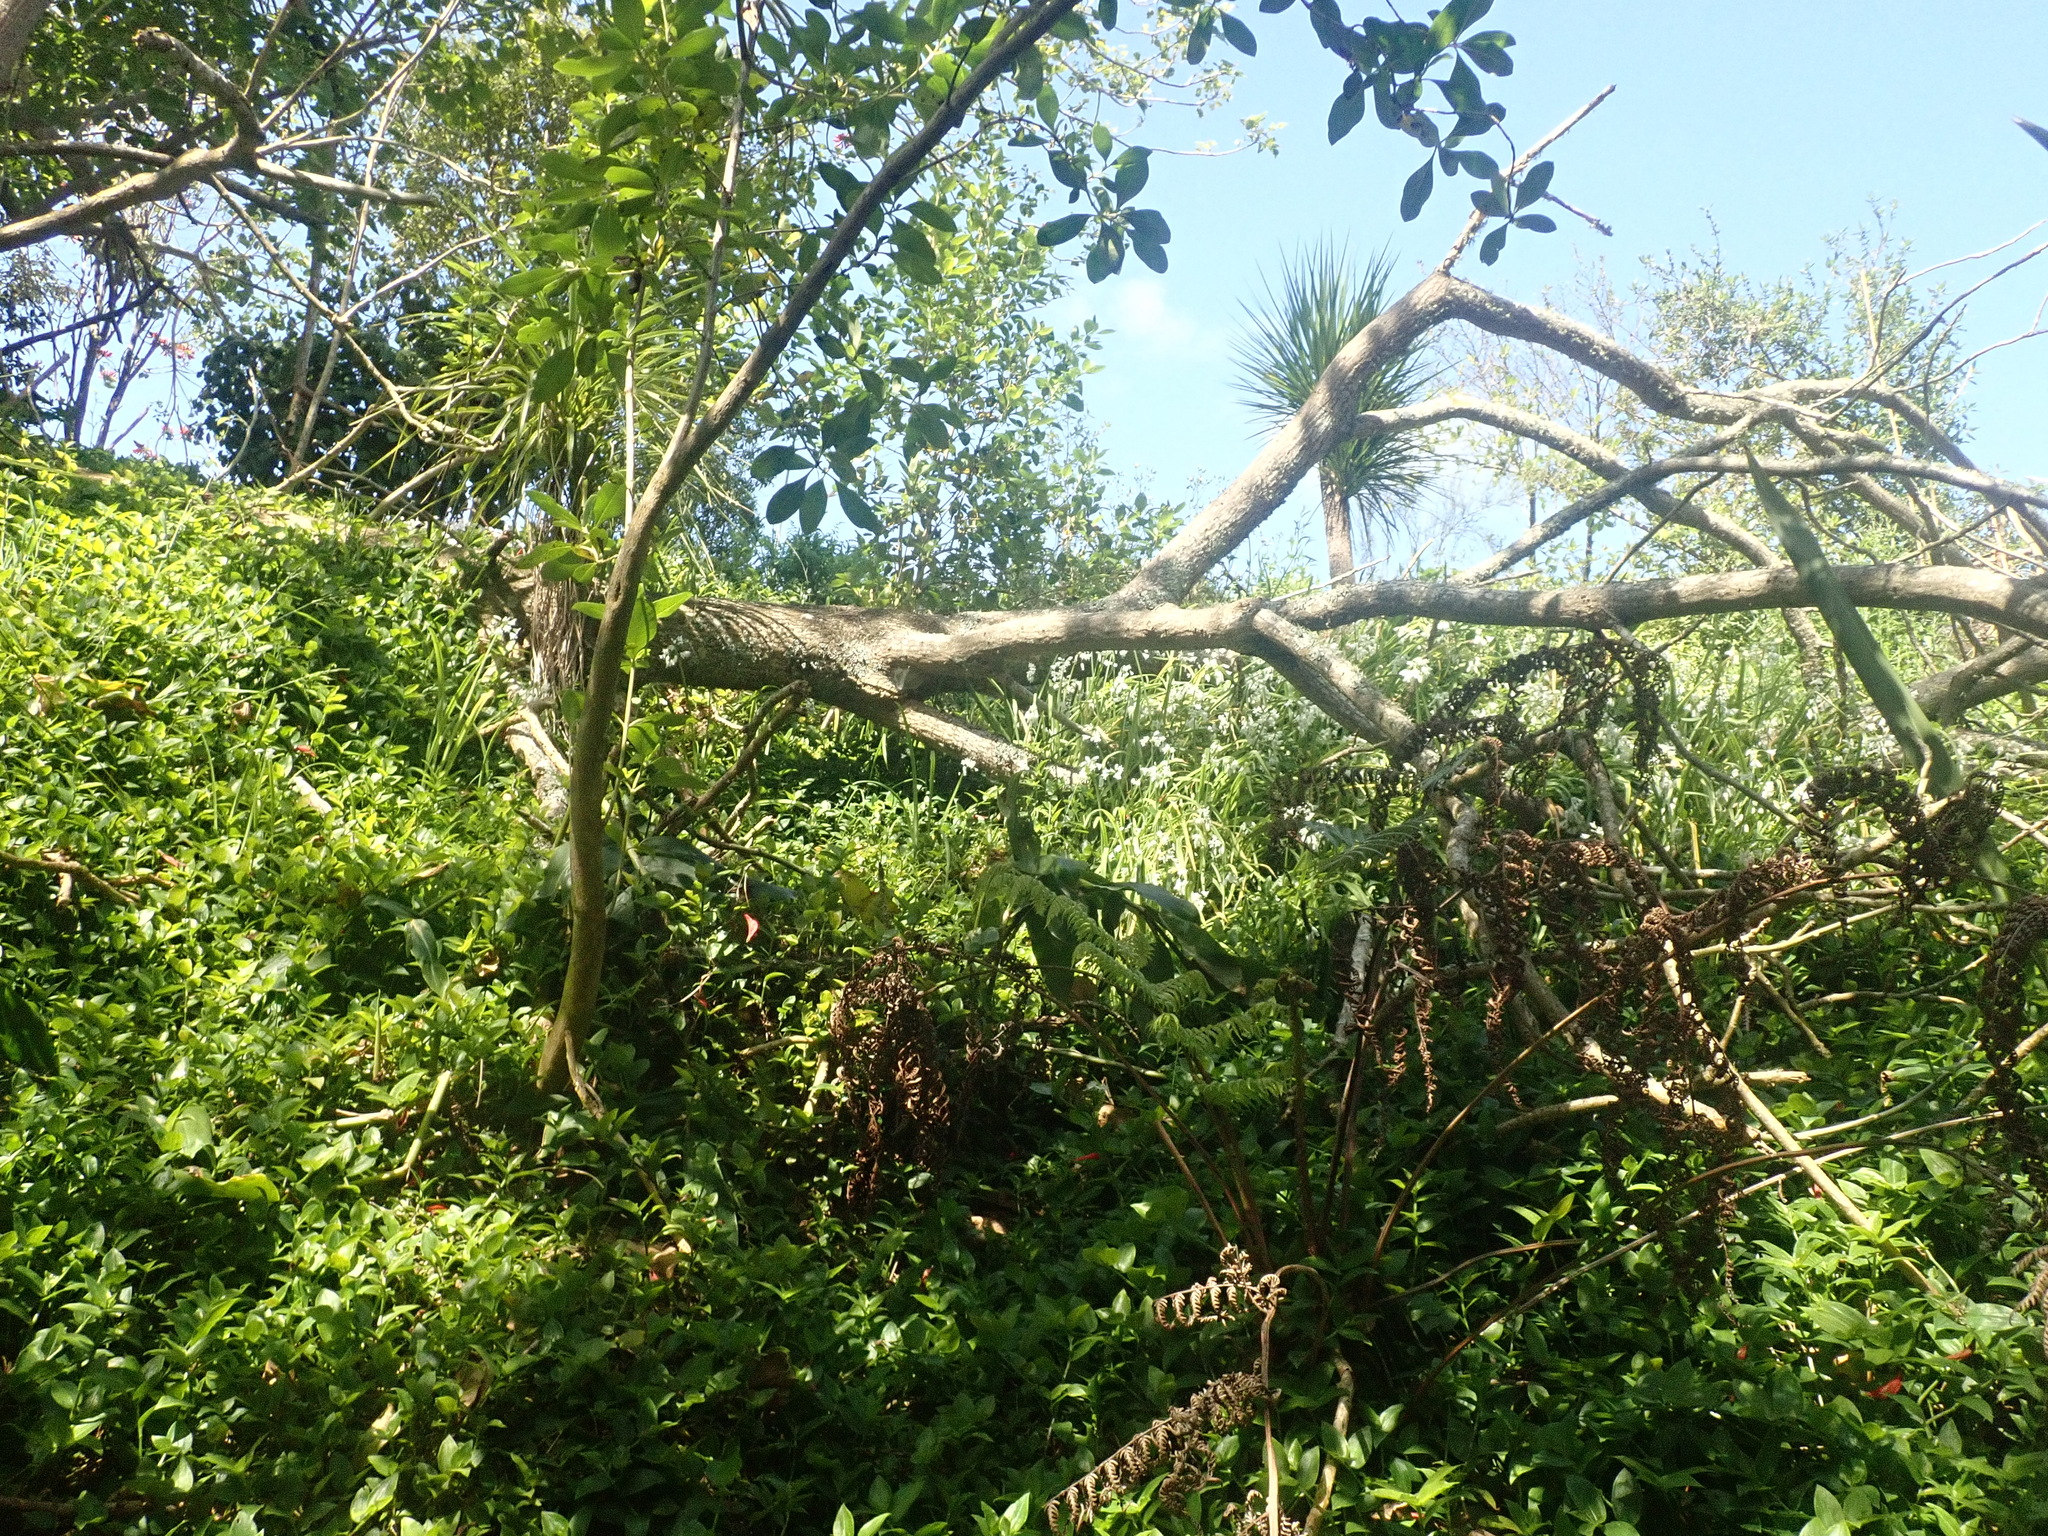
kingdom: Plantae
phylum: Tracheophyta
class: Magnoliopsida
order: Gentianales
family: Rubiaceae
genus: Coprosma
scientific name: Coprosma robusta
